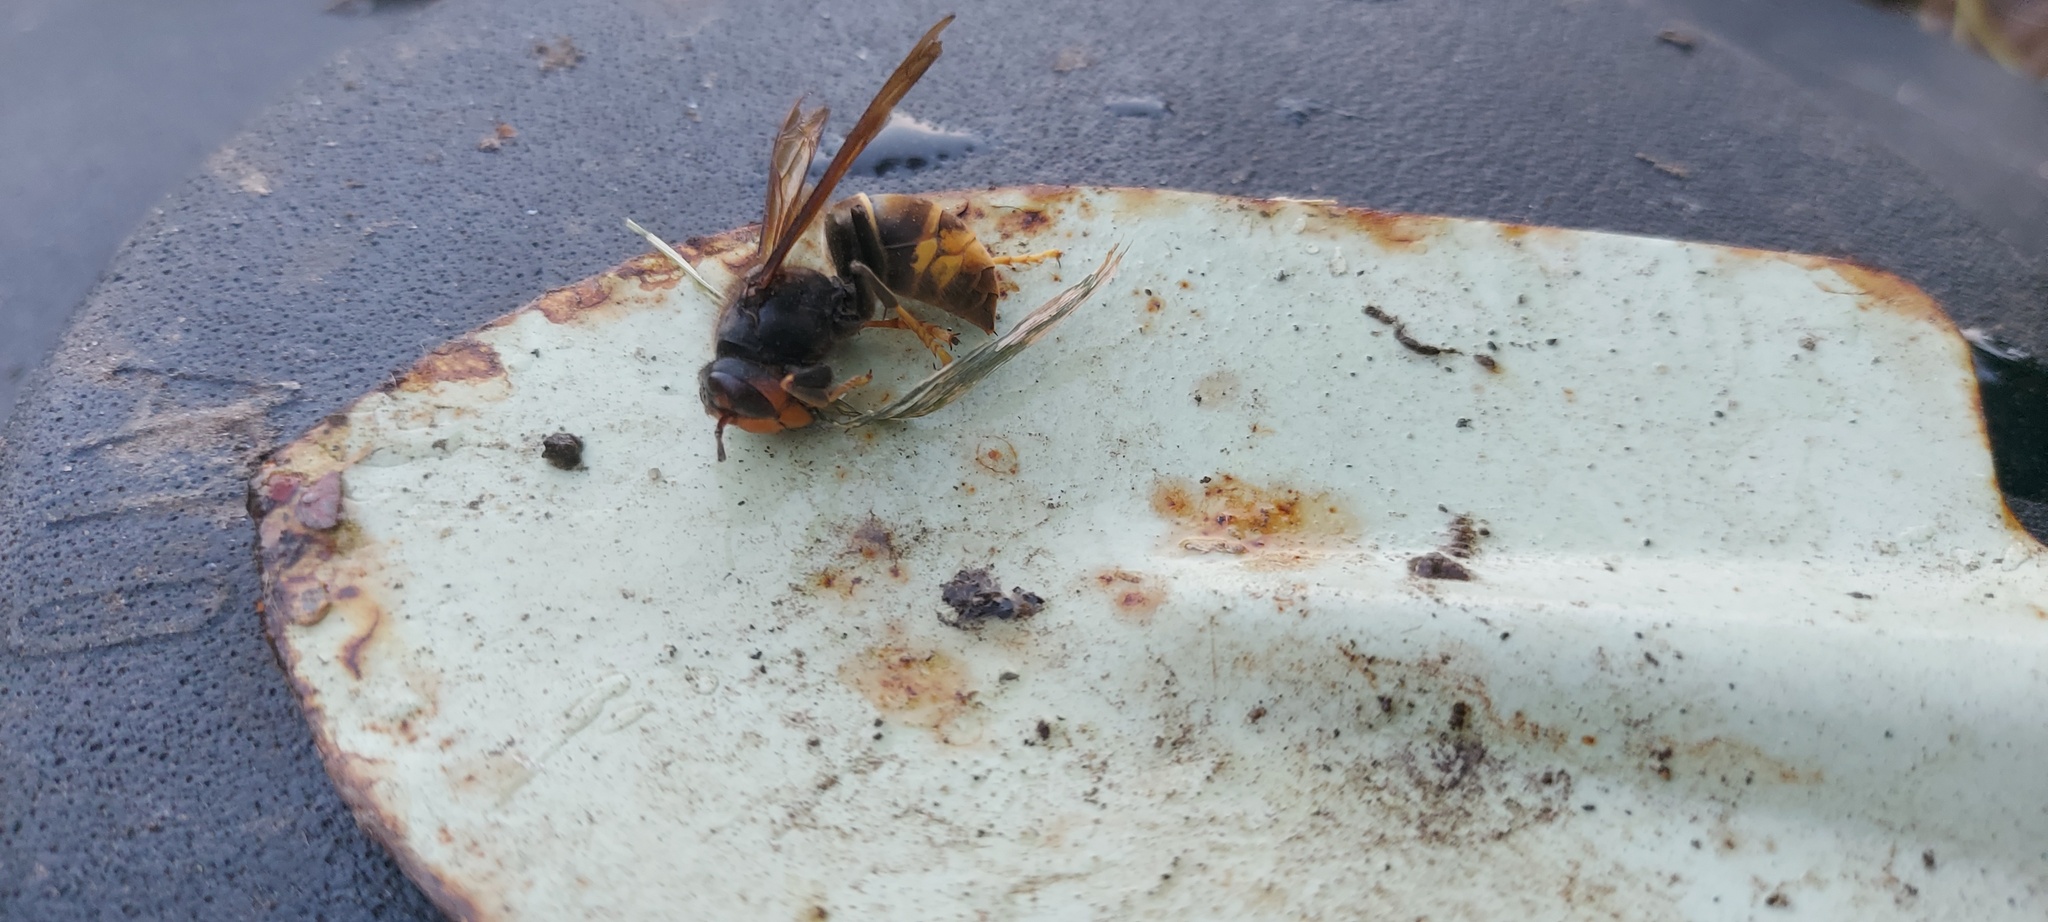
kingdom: Animalia
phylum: Arthropoda
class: Insecta
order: Hymenoptera
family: Vespidae
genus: Vespa
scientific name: Vespa velutina
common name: Asian hornet
